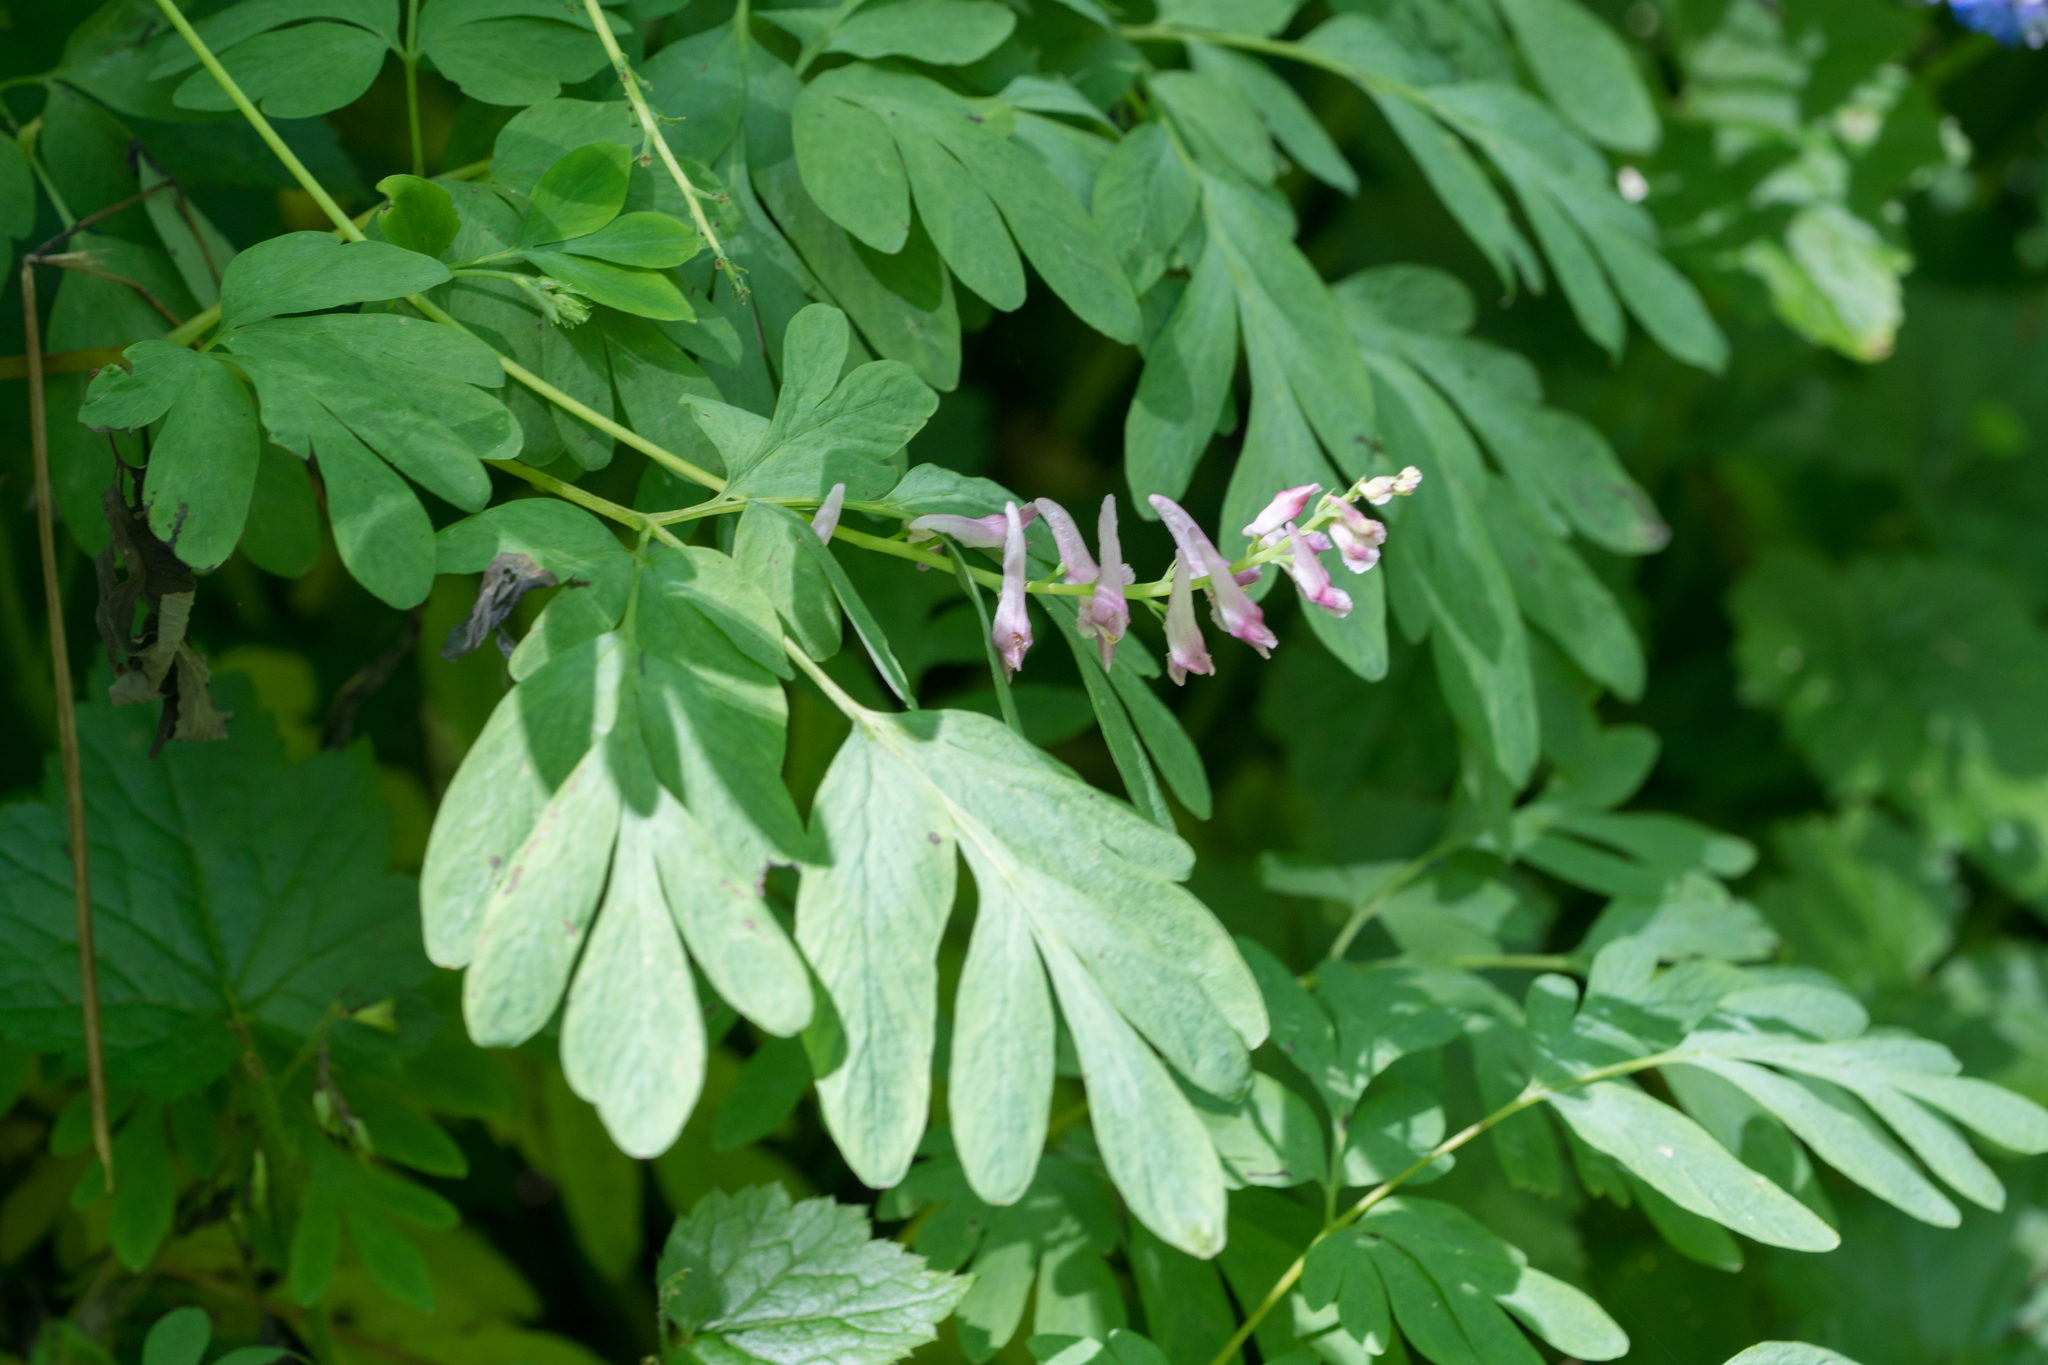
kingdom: Plantae
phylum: Tracheophyta
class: Magnoliopsida
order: Ranunculales
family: Papaveraceae
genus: Corydalis
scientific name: Corydalis scouleri
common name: Scouler's corydalis
